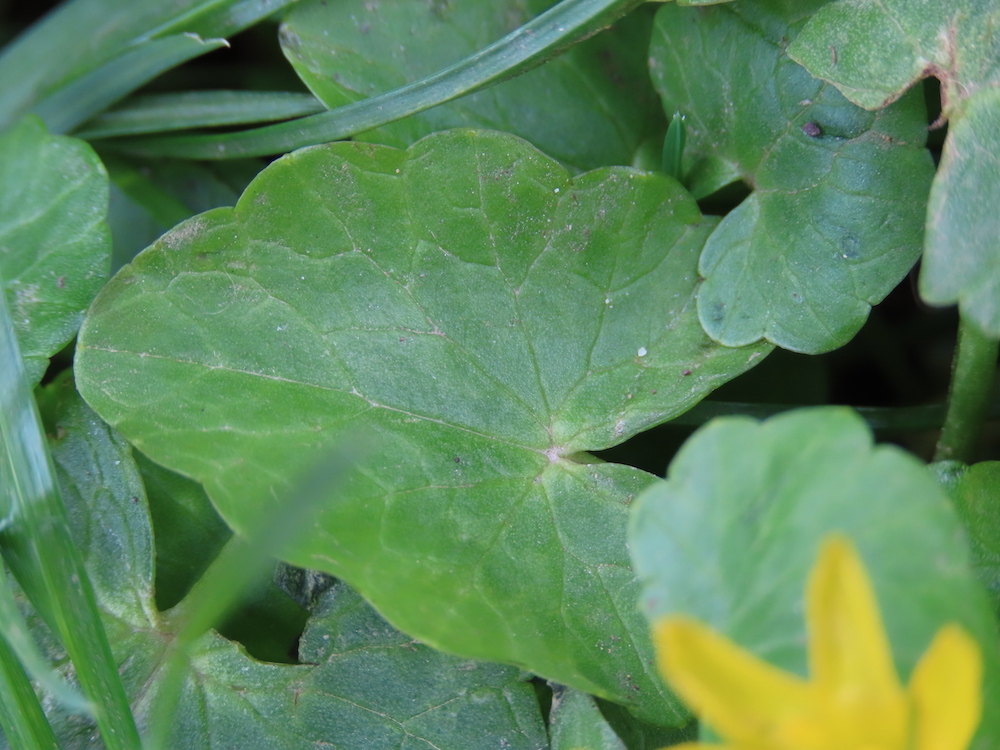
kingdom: Plantae
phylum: Tracheophyta
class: Magnoliopsida
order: Ranunculales
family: Ranunculaceae
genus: Ficaria
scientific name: Ficaria verna
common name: Lesser celandine
